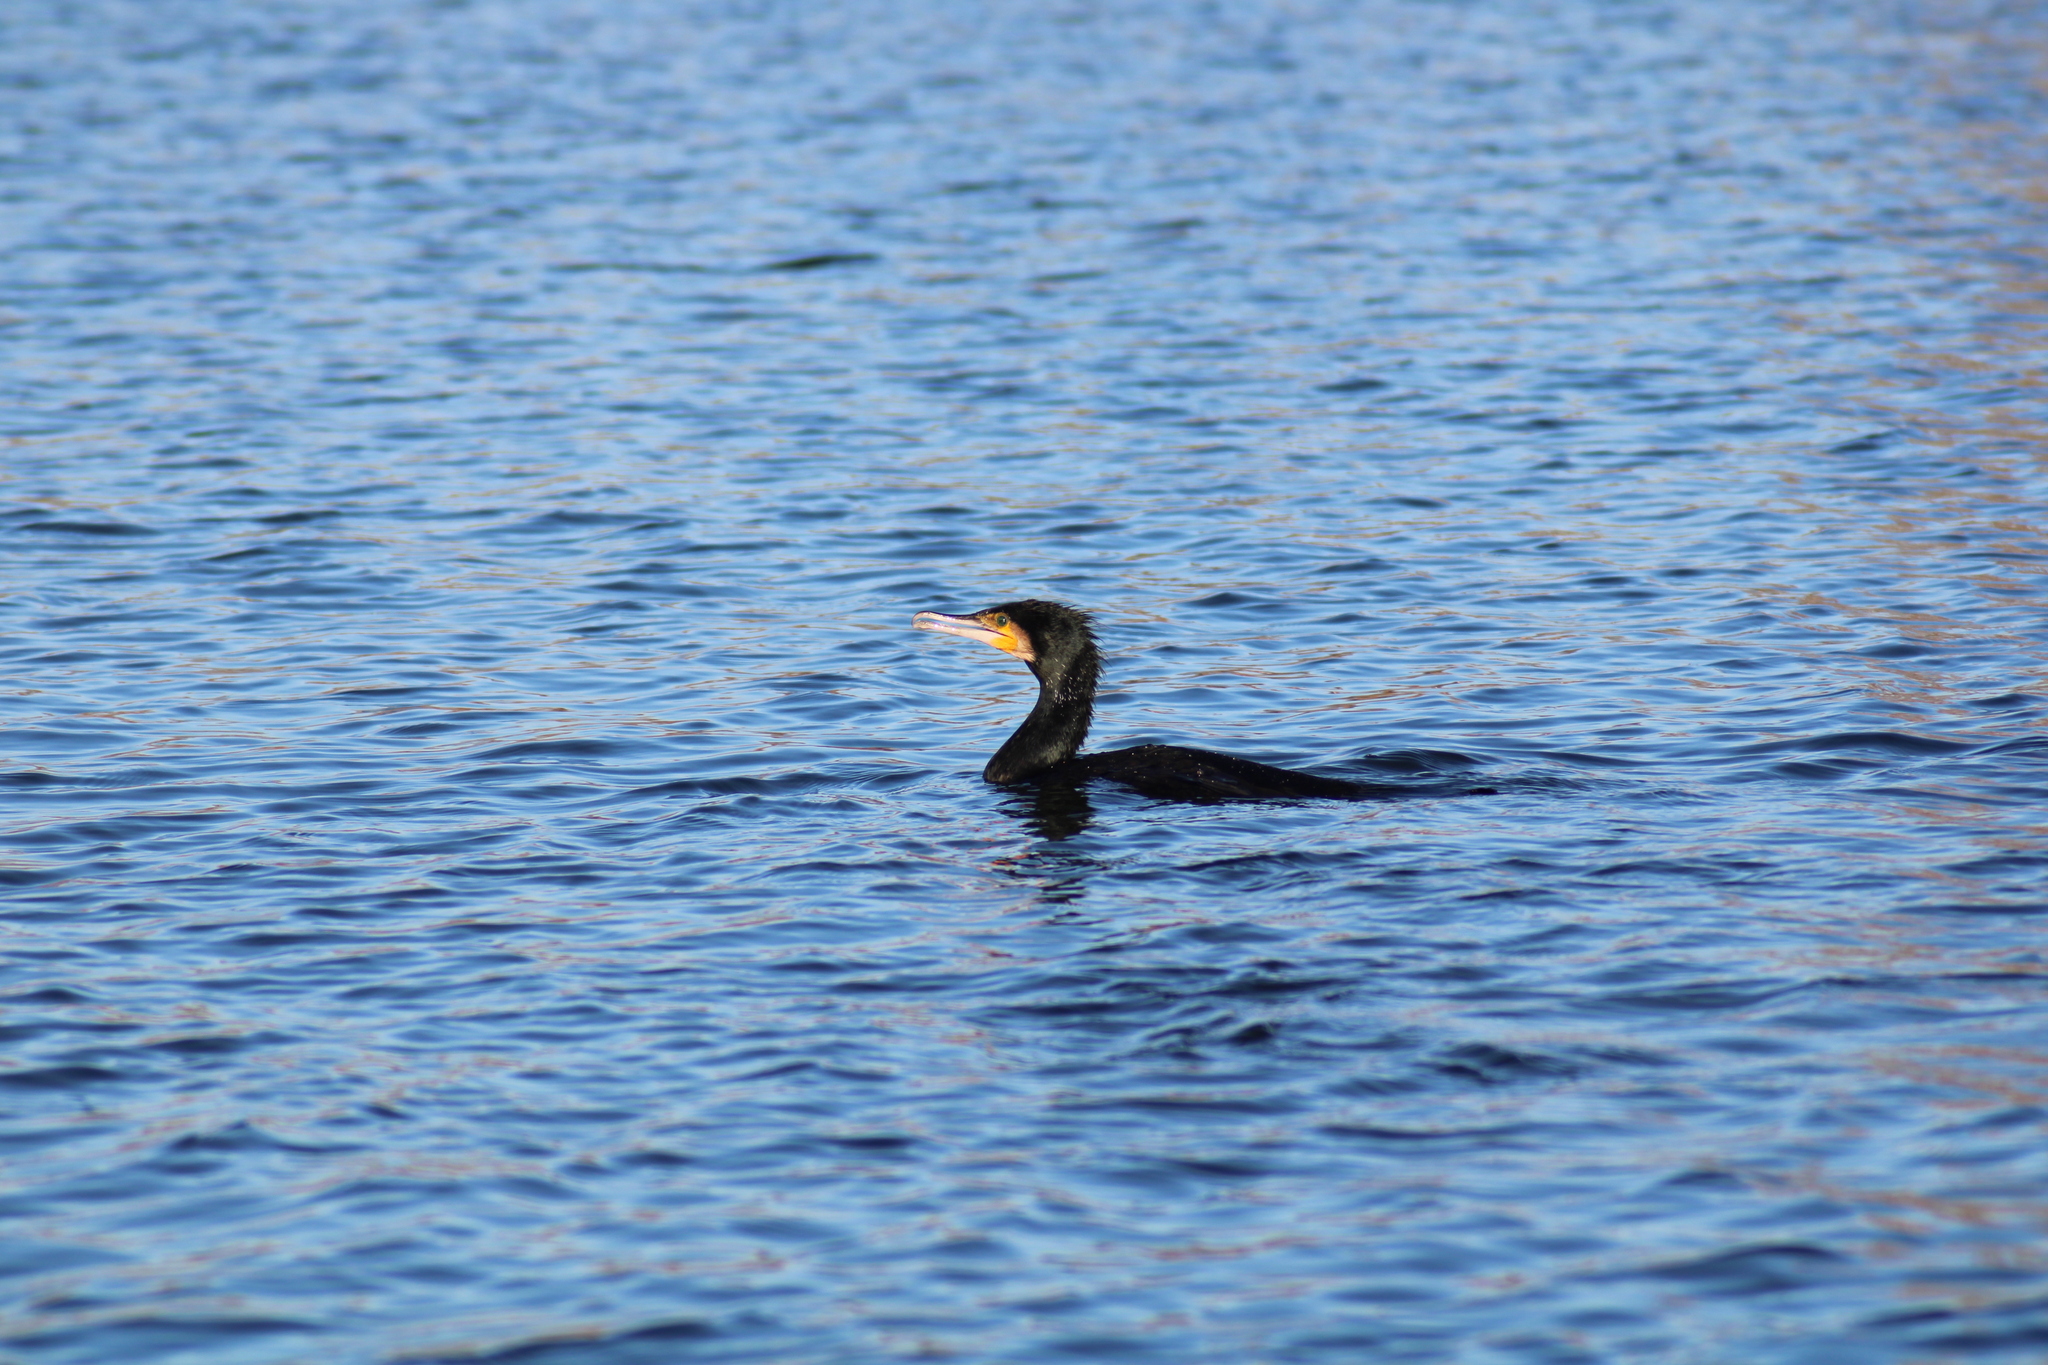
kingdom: Animalia
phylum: Chordata
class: Aves
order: Suliformes
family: Phalacrocoracidae
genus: Phalacrocorax
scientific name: Phalacrocorax carbo
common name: Great cormorant
